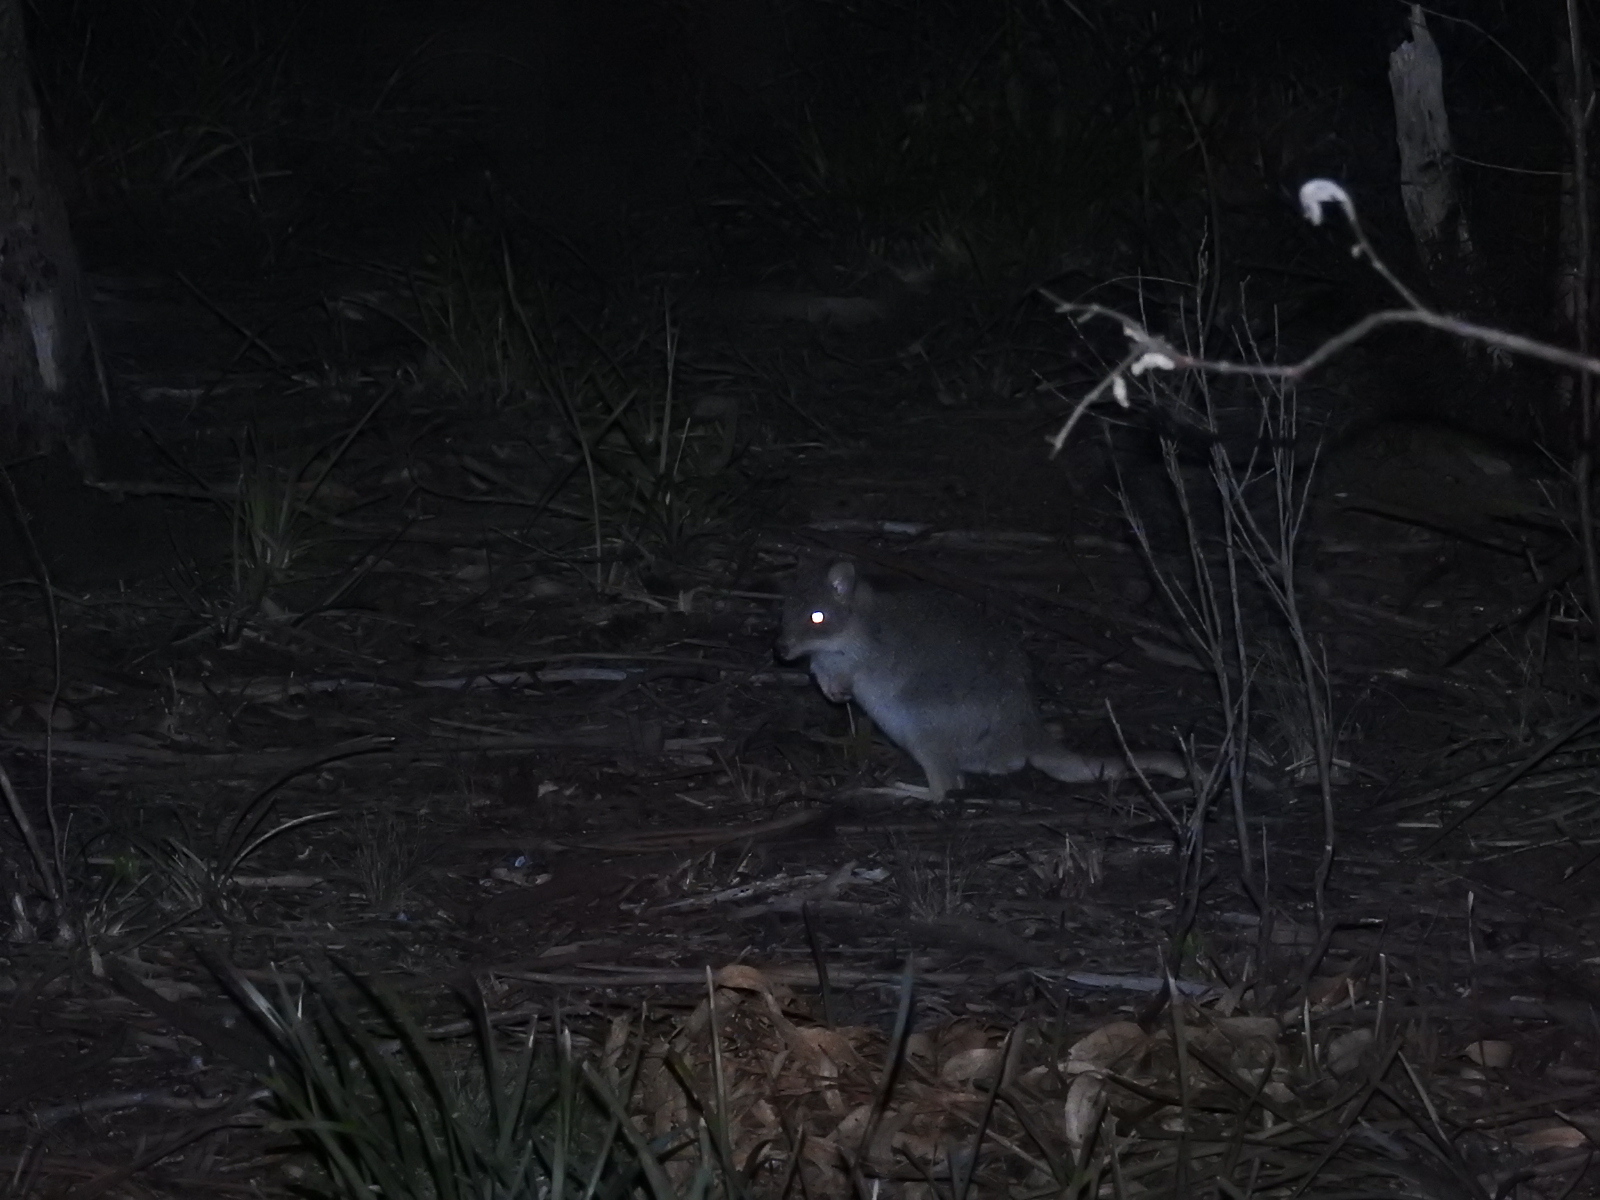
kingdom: Animalia
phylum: Chordata
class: Mammalia
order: Diprotodontia
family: Potoroidae
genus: Bettongia
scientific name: Bettongia gaimardi
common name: Eastern bettong
